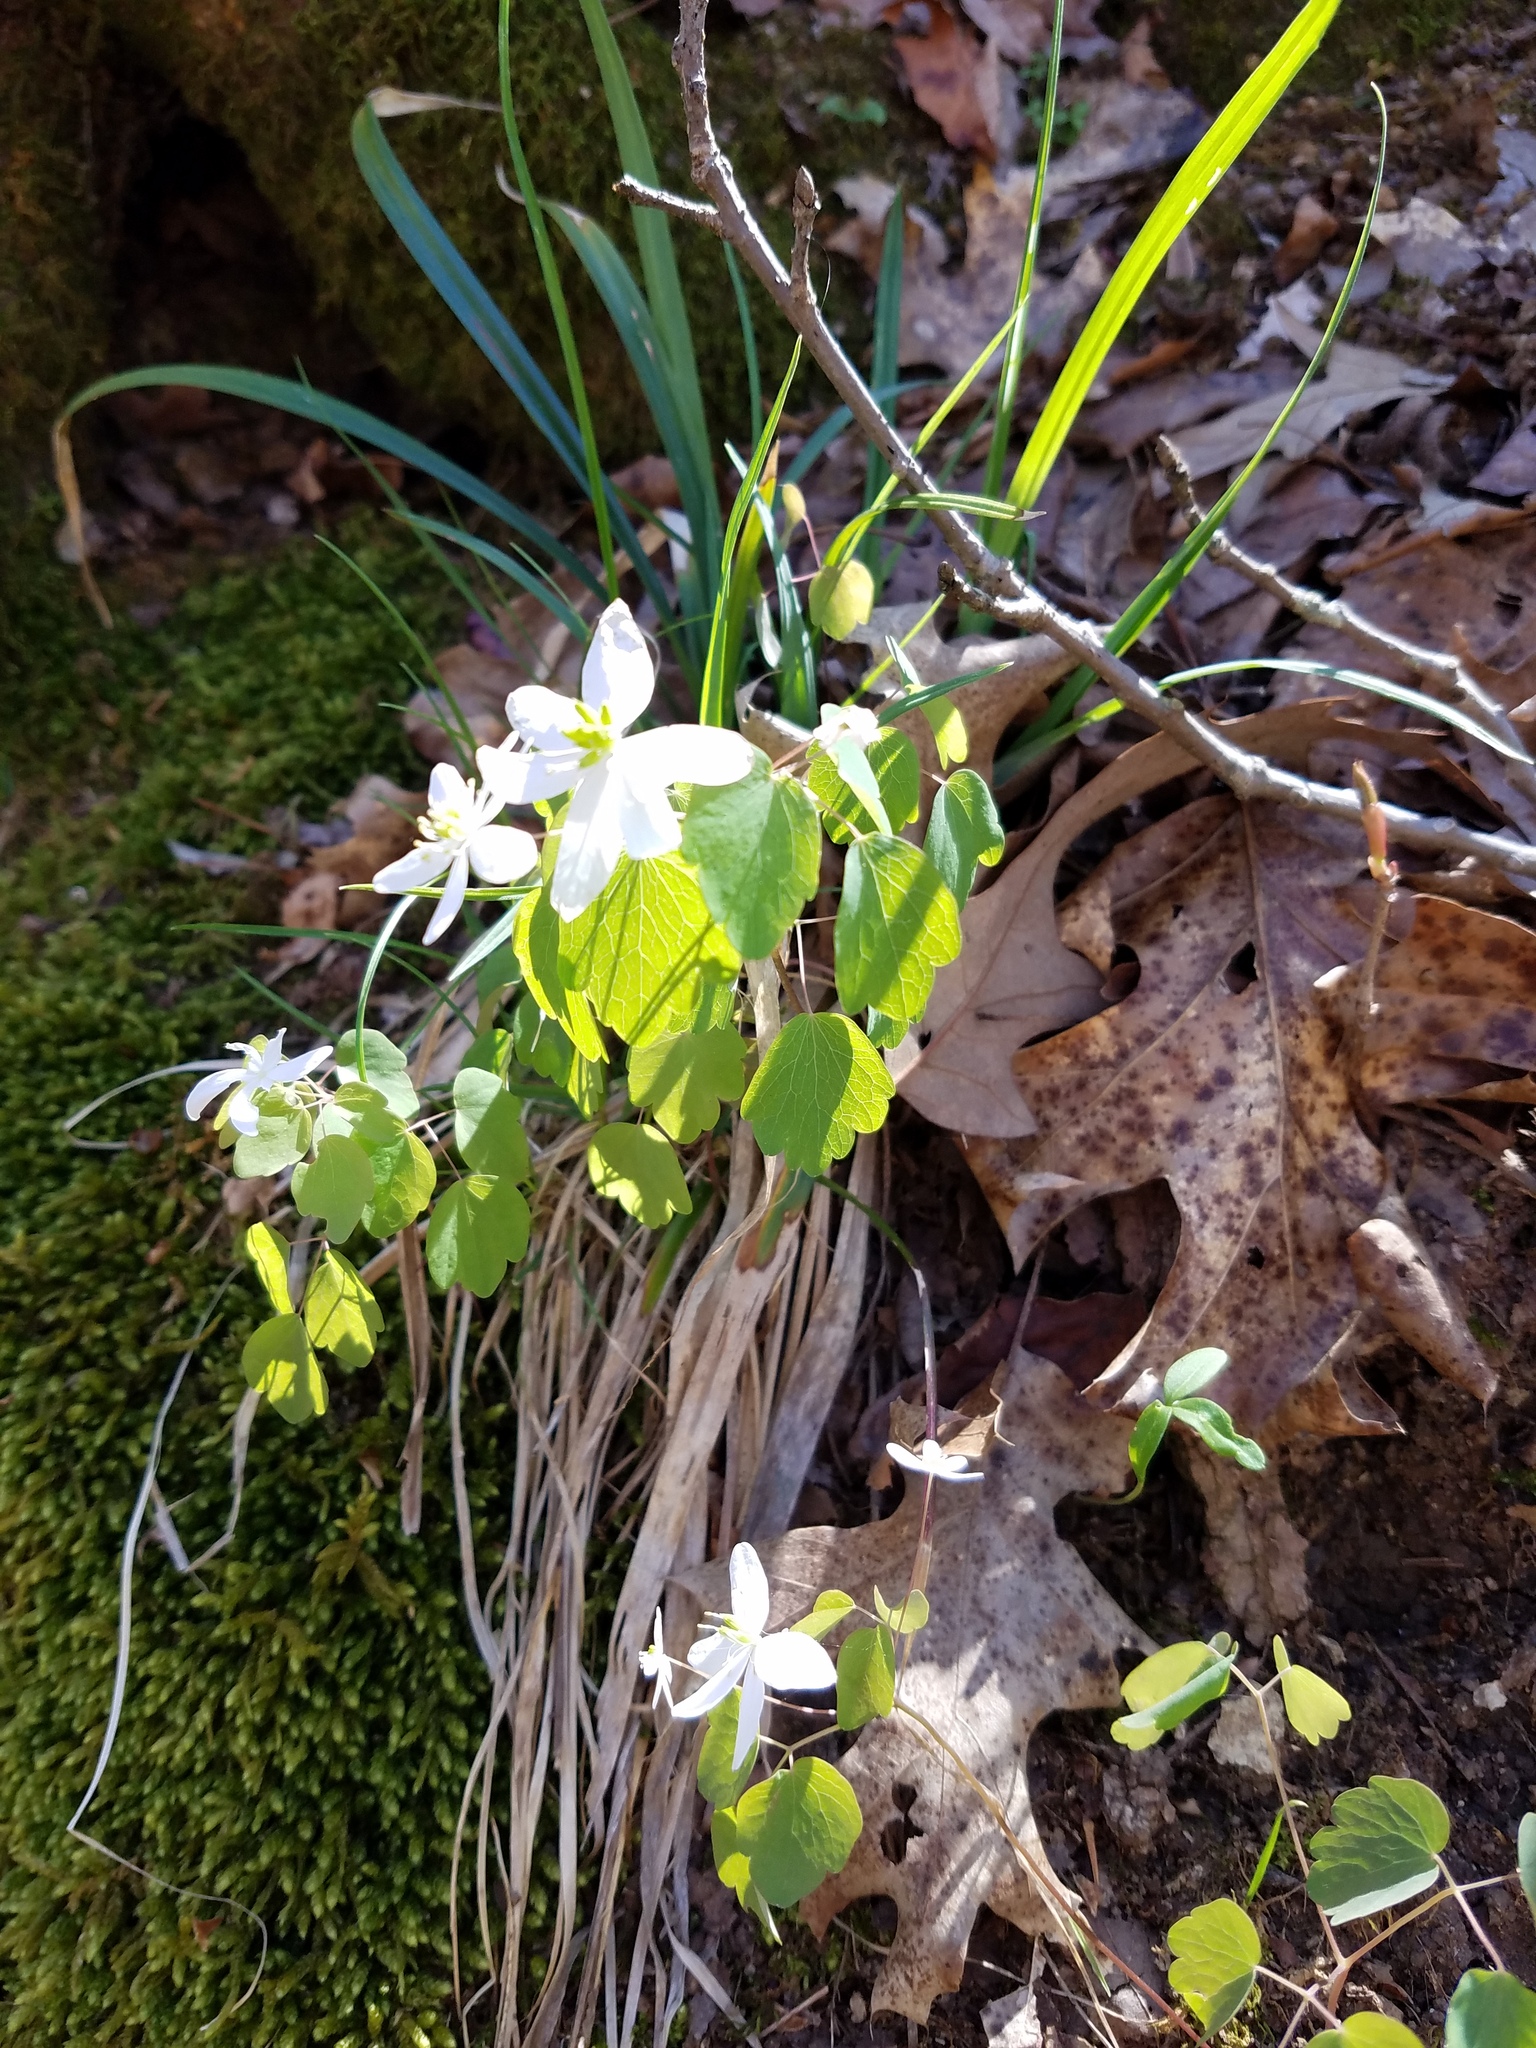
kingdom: Plantae
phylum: Tracheophyta
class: Magnoliopsida
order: Ranunculales
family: Ranunculaceae
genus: Thalictrum
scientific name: Thalictrum thalictroides
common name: Rue-anemone
